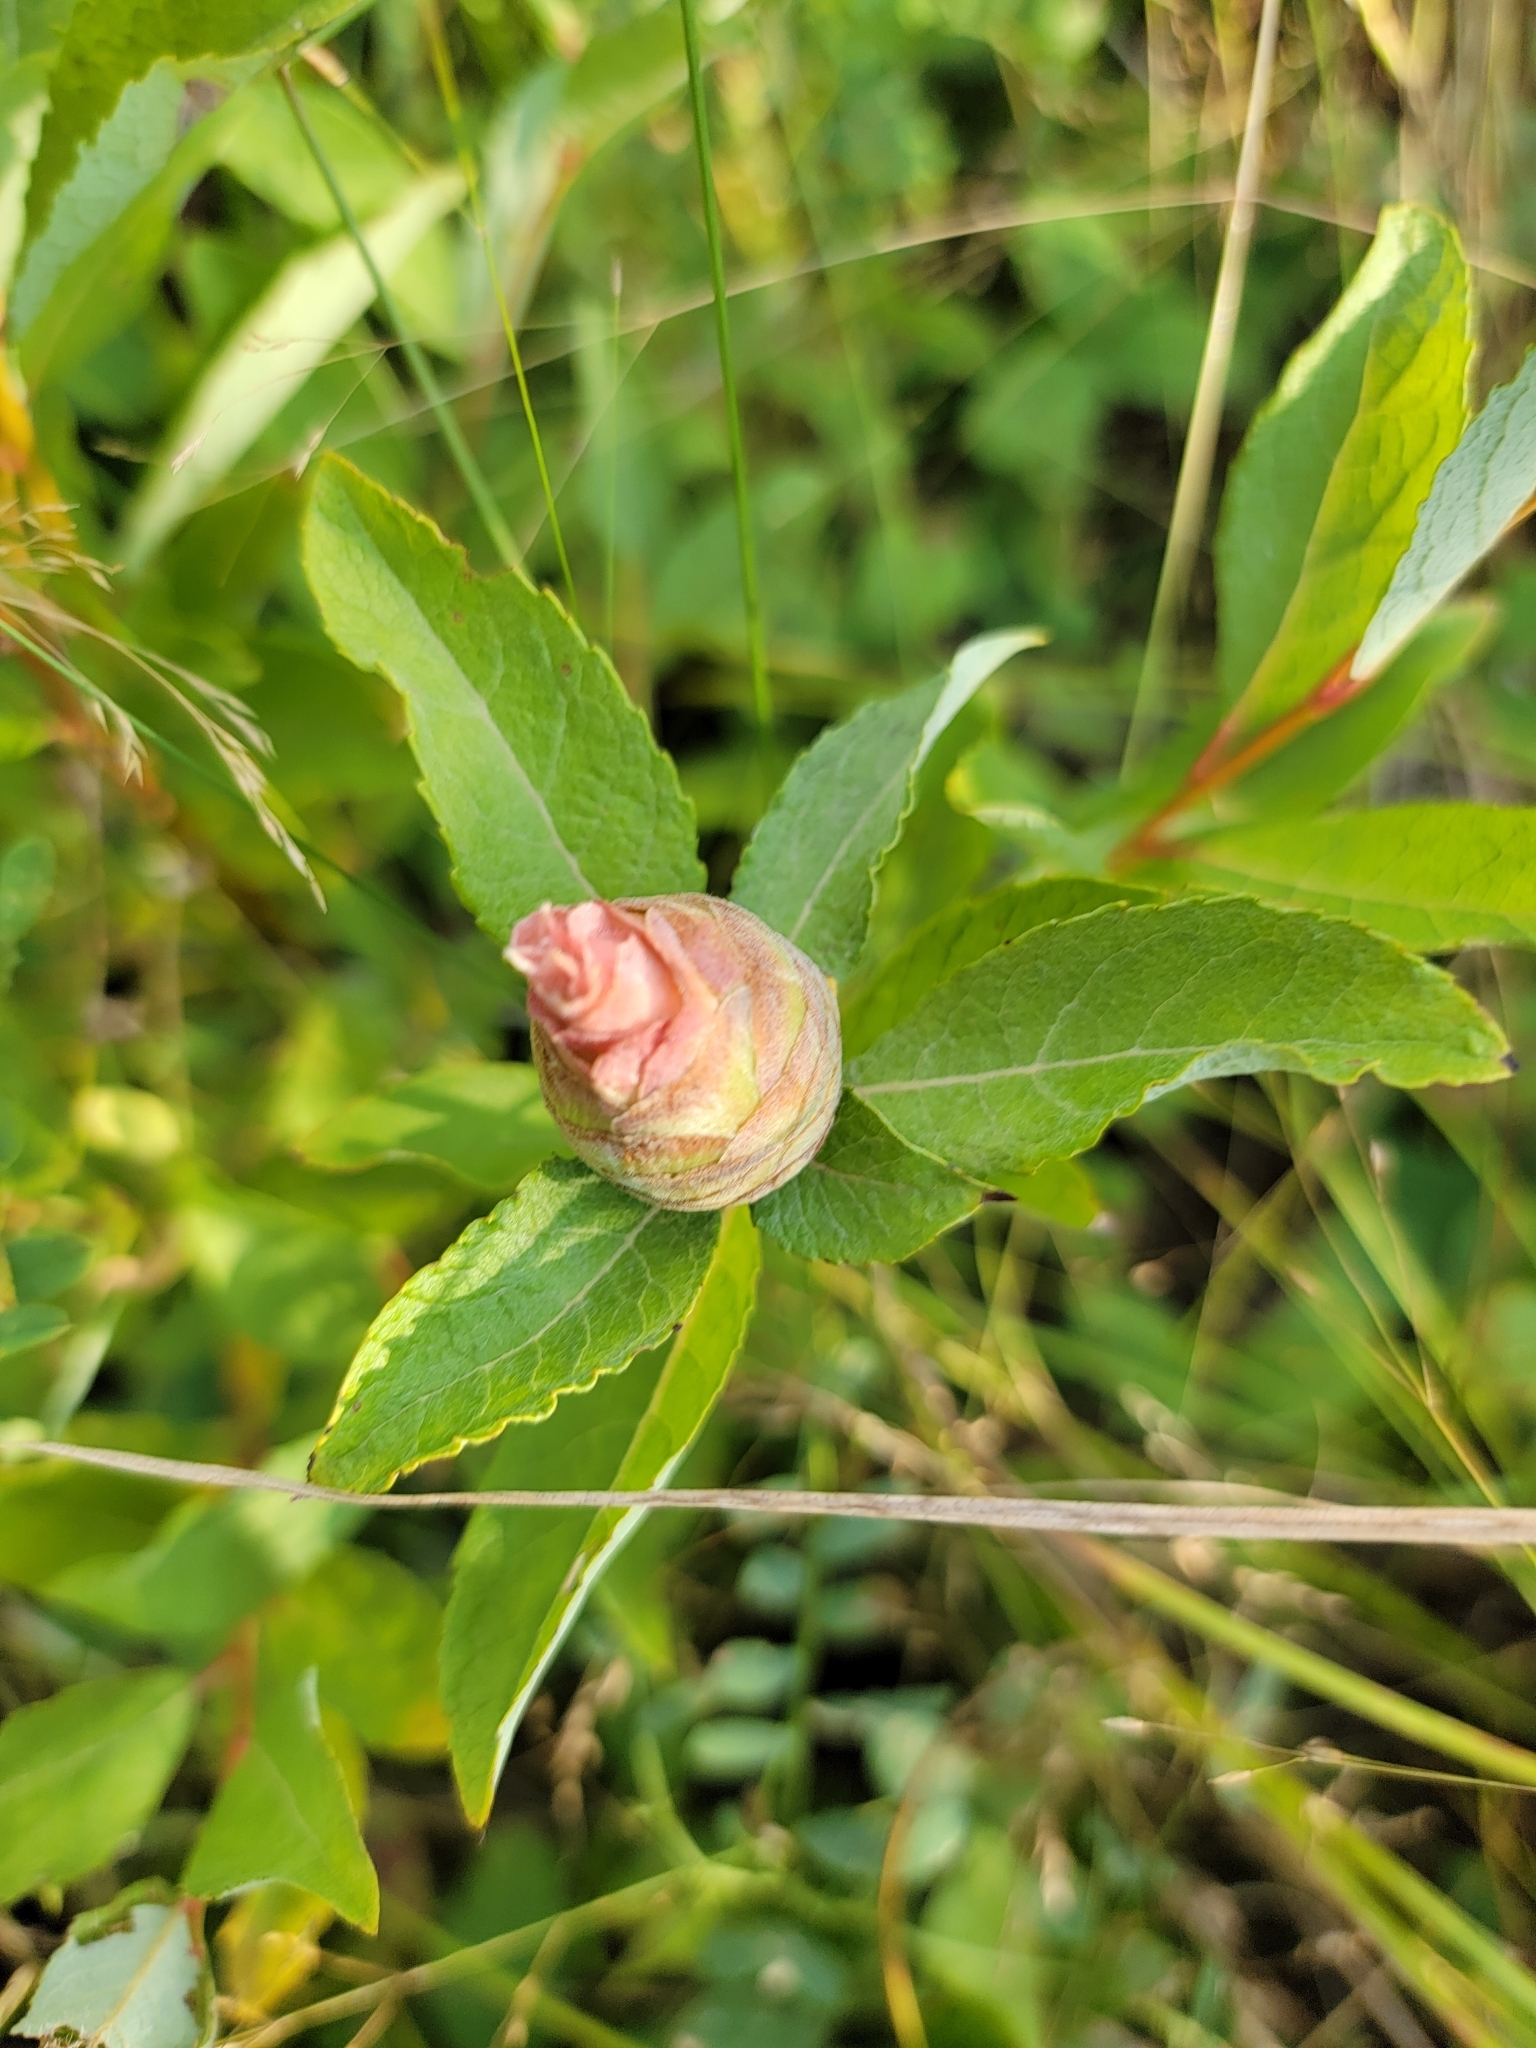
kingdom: Animalia
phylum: Arthropoda
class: Insecta
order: Diptera
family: Cecidomyiidae
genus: Rabdophaga
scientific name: Rabdophaga strobiloides
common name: Willow pinecone gall midge
